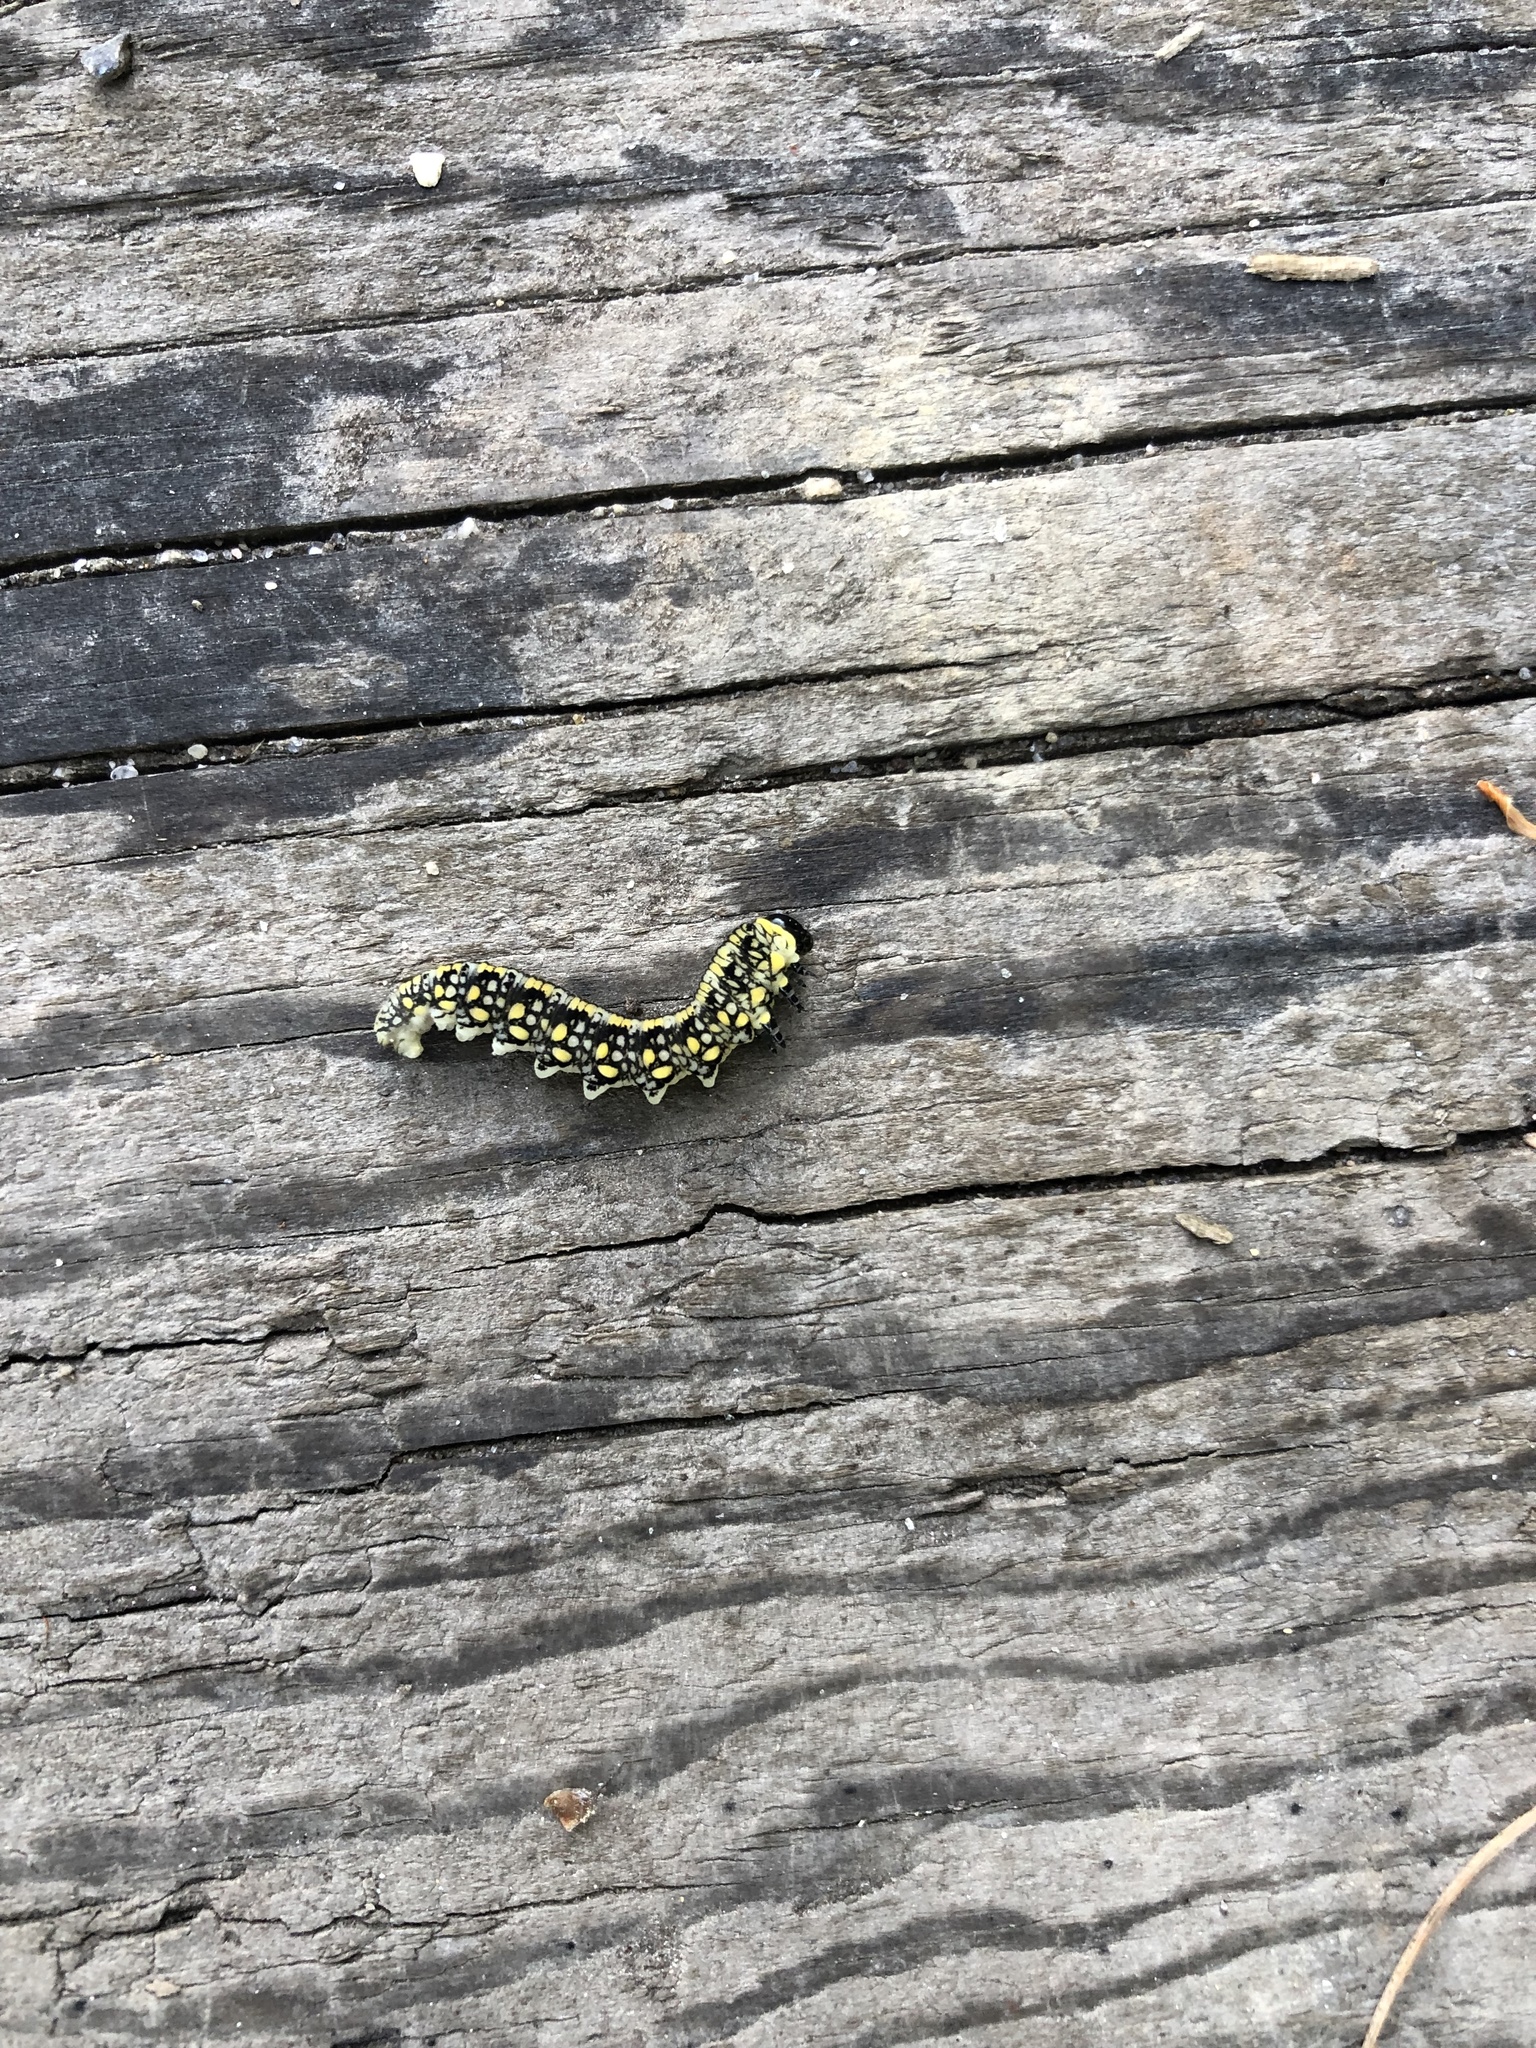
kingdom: Animalia
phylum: Arthropoda
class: Insecta
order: Hymenoptera
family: Diprionidae
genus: Diprion
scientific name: Diprion similis
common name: Pine sawfly
